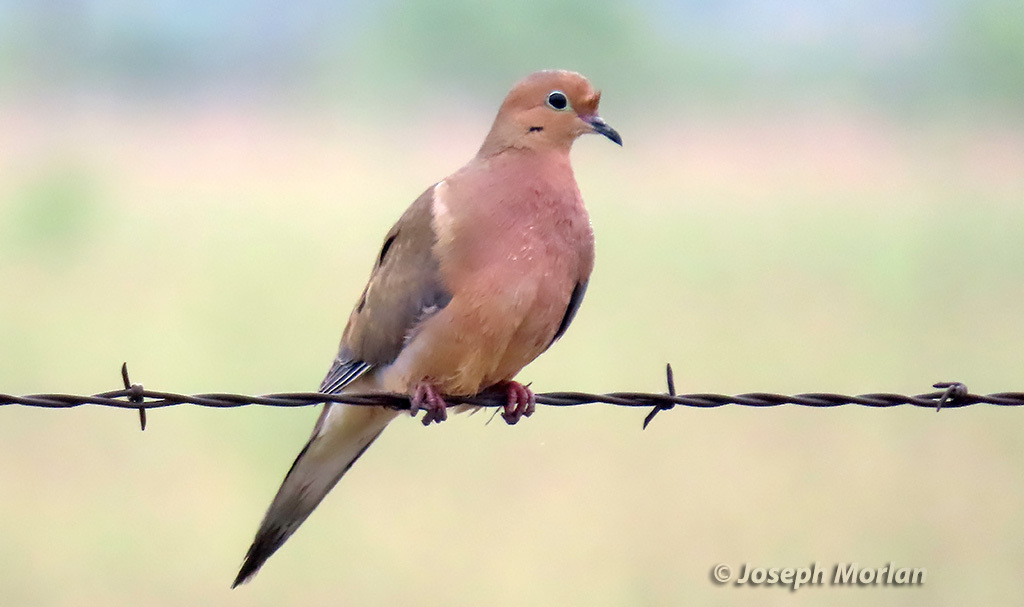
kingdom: Animalia
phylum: Chordata
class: Aves
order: Columbiformes
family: Columbidae
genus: Zenaida
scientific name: Zenaida macroura
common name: Mourning dove
